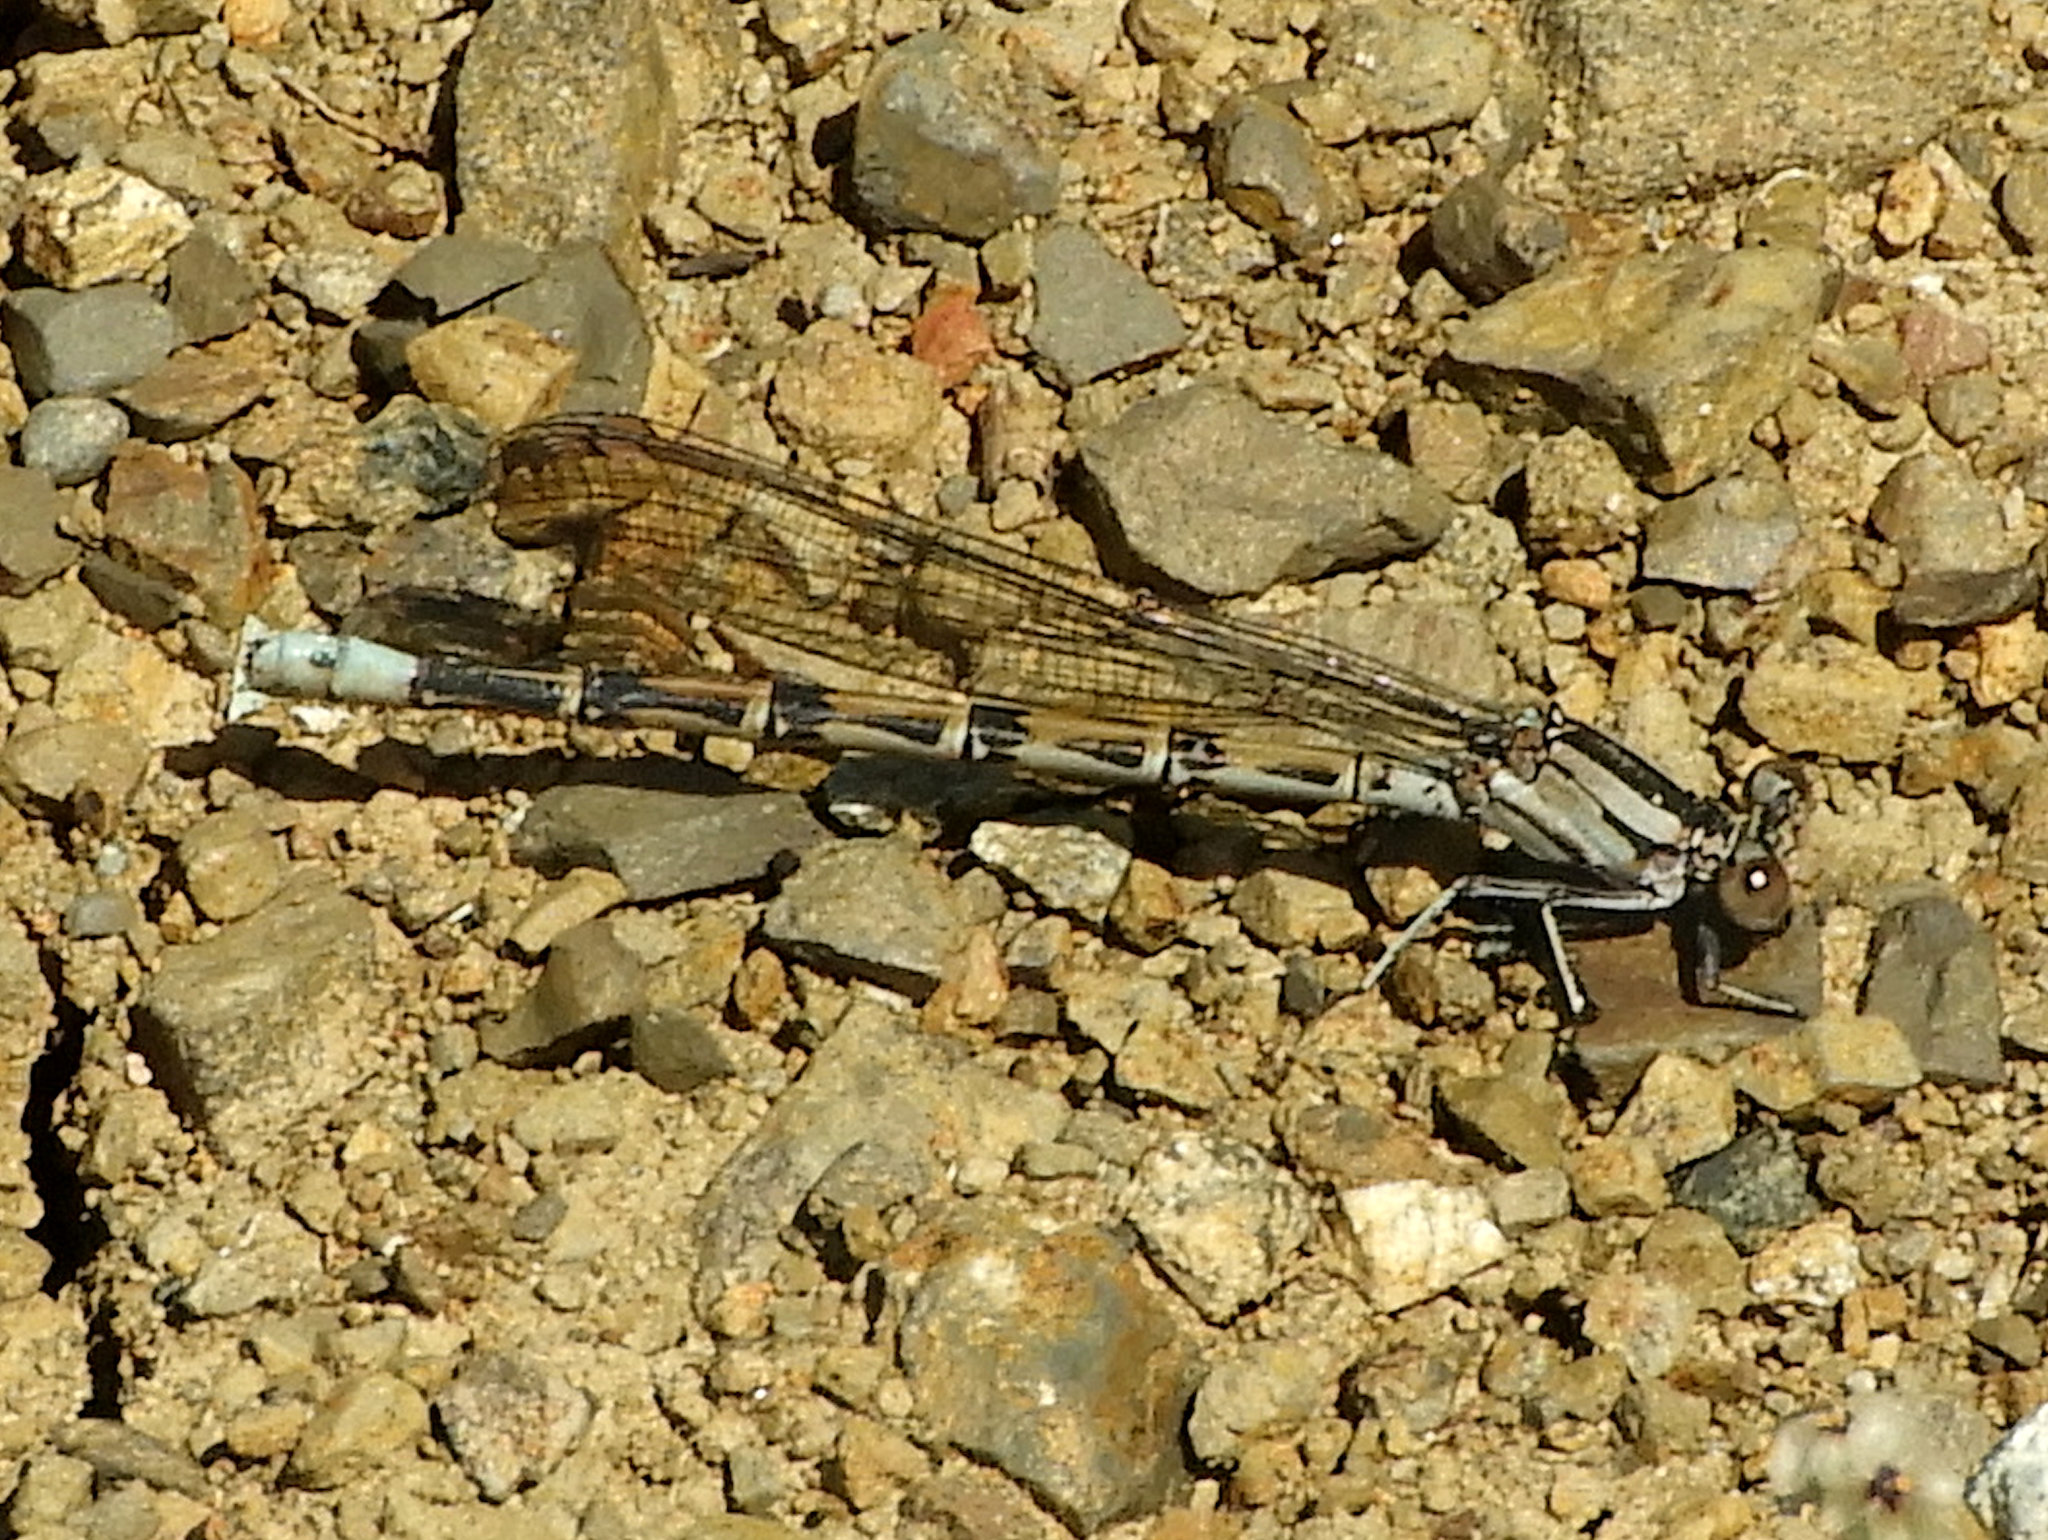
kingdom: Animalia
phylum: Arthropoda
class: Insecta
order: Odonata
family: Coenagrionidae
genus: Argia
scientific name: Argia vivida
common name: Vivid dancer
